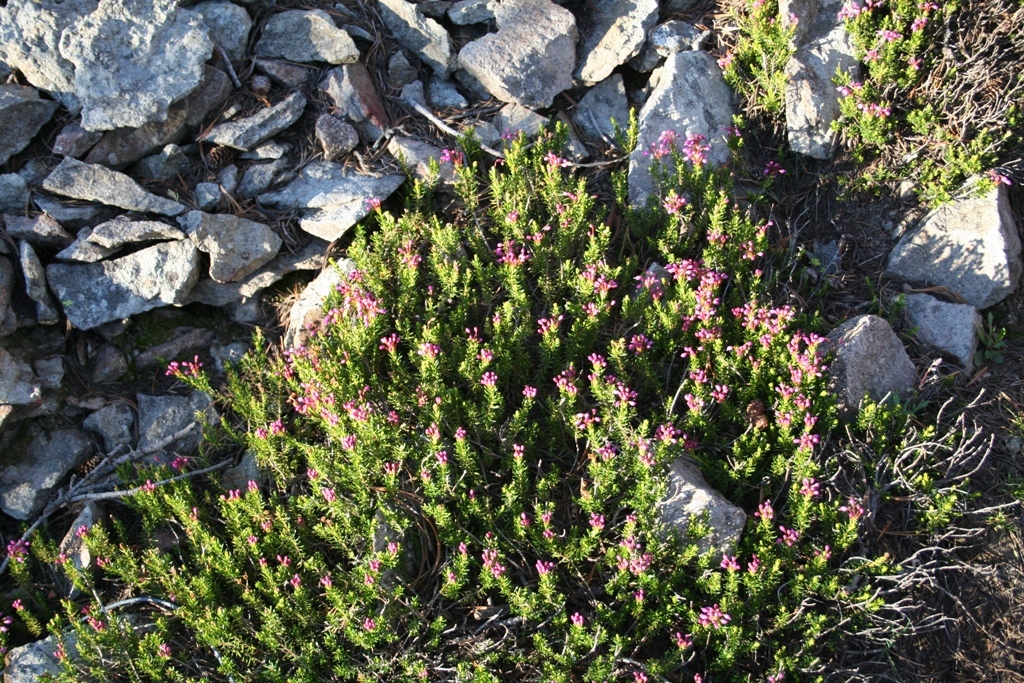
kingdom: Plantae
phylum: Tracheophyta
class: Magnoliopsida
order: Ericales
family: Ericaceae
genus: Phyllodoce
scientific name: Phyllodoce empetriformis
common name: Pink mountain heather
